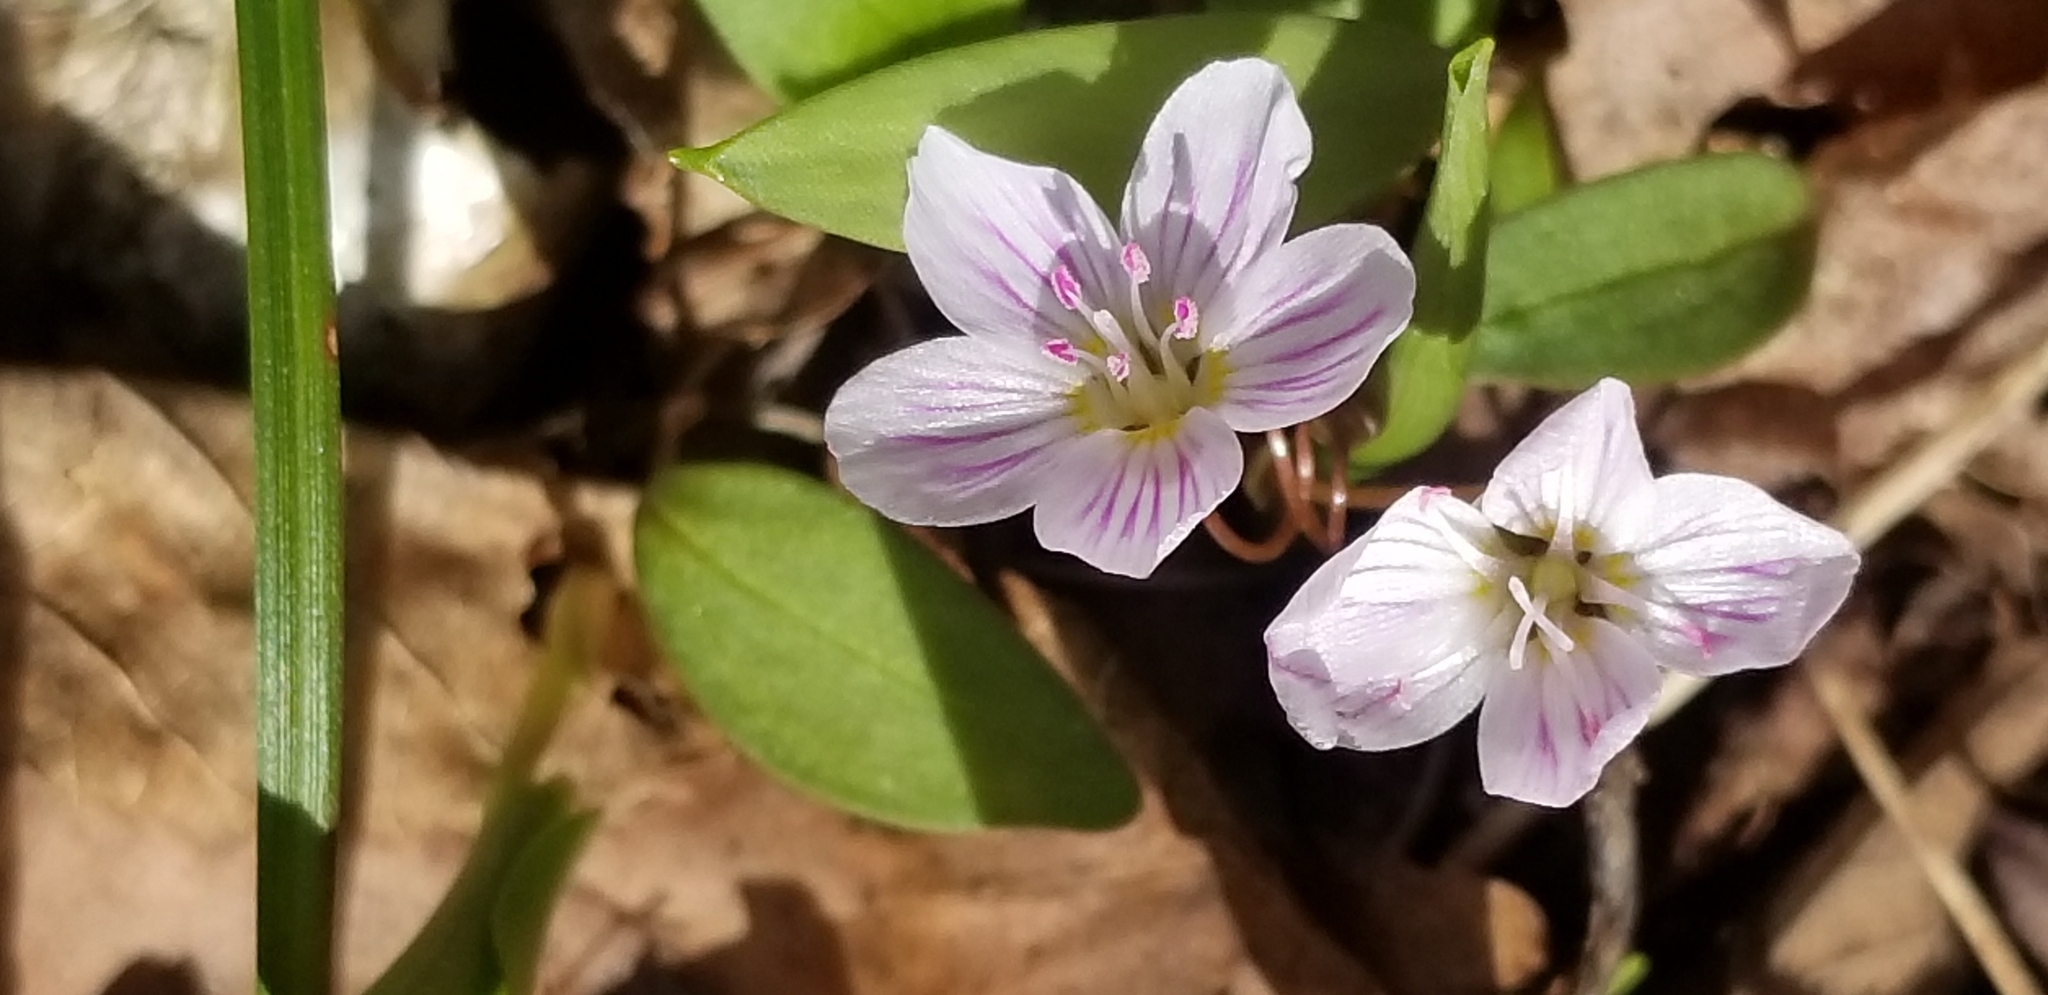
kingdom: Plantae
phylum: Tracheophyta
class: Magnoliopsida
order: Caryophyllales
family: Montiaceae
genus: Claytonia
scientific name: Claytonia caroliniana
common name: Carolina spring beauty
